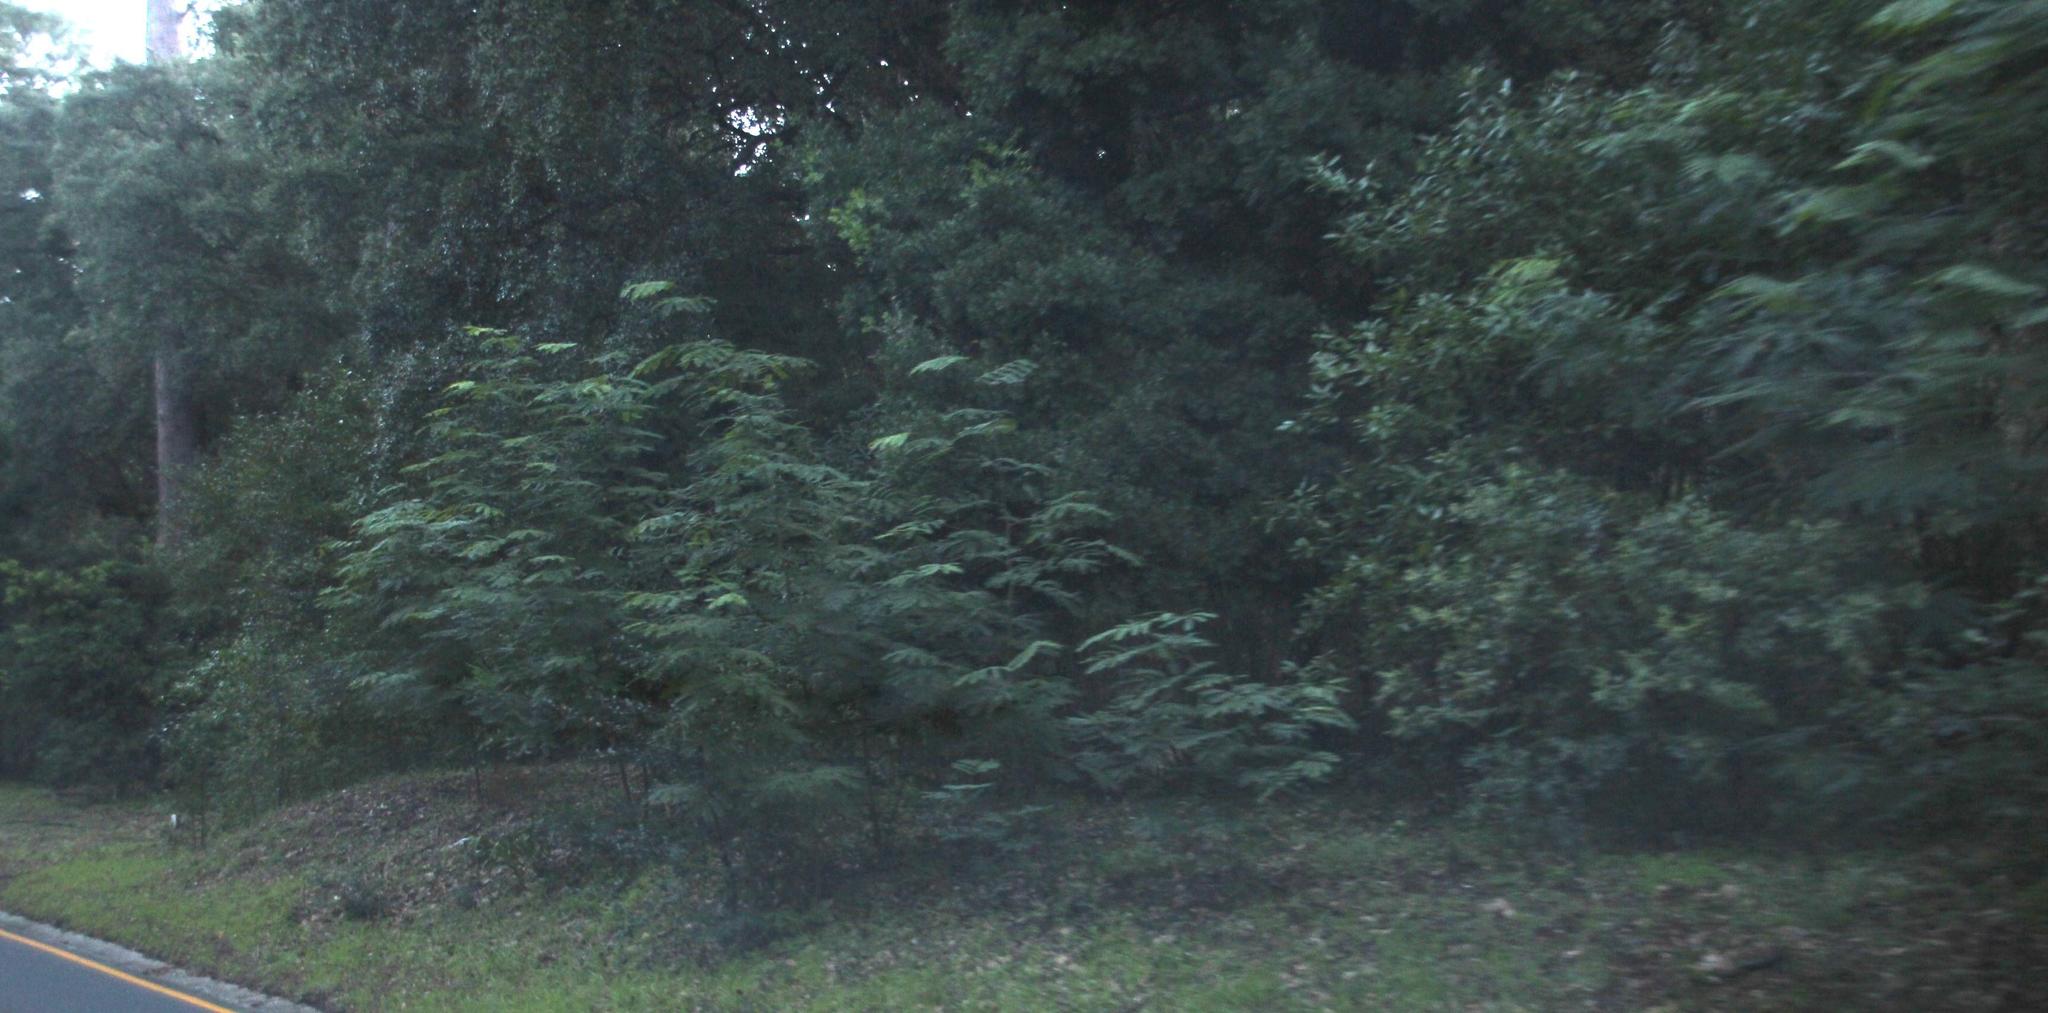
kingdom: Plantae
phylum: Tracheophyta
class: Magnoliopsida
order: Fabales
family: Fabaceae
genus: Acacia
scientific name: Acacia elata
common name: Cedar wattle
